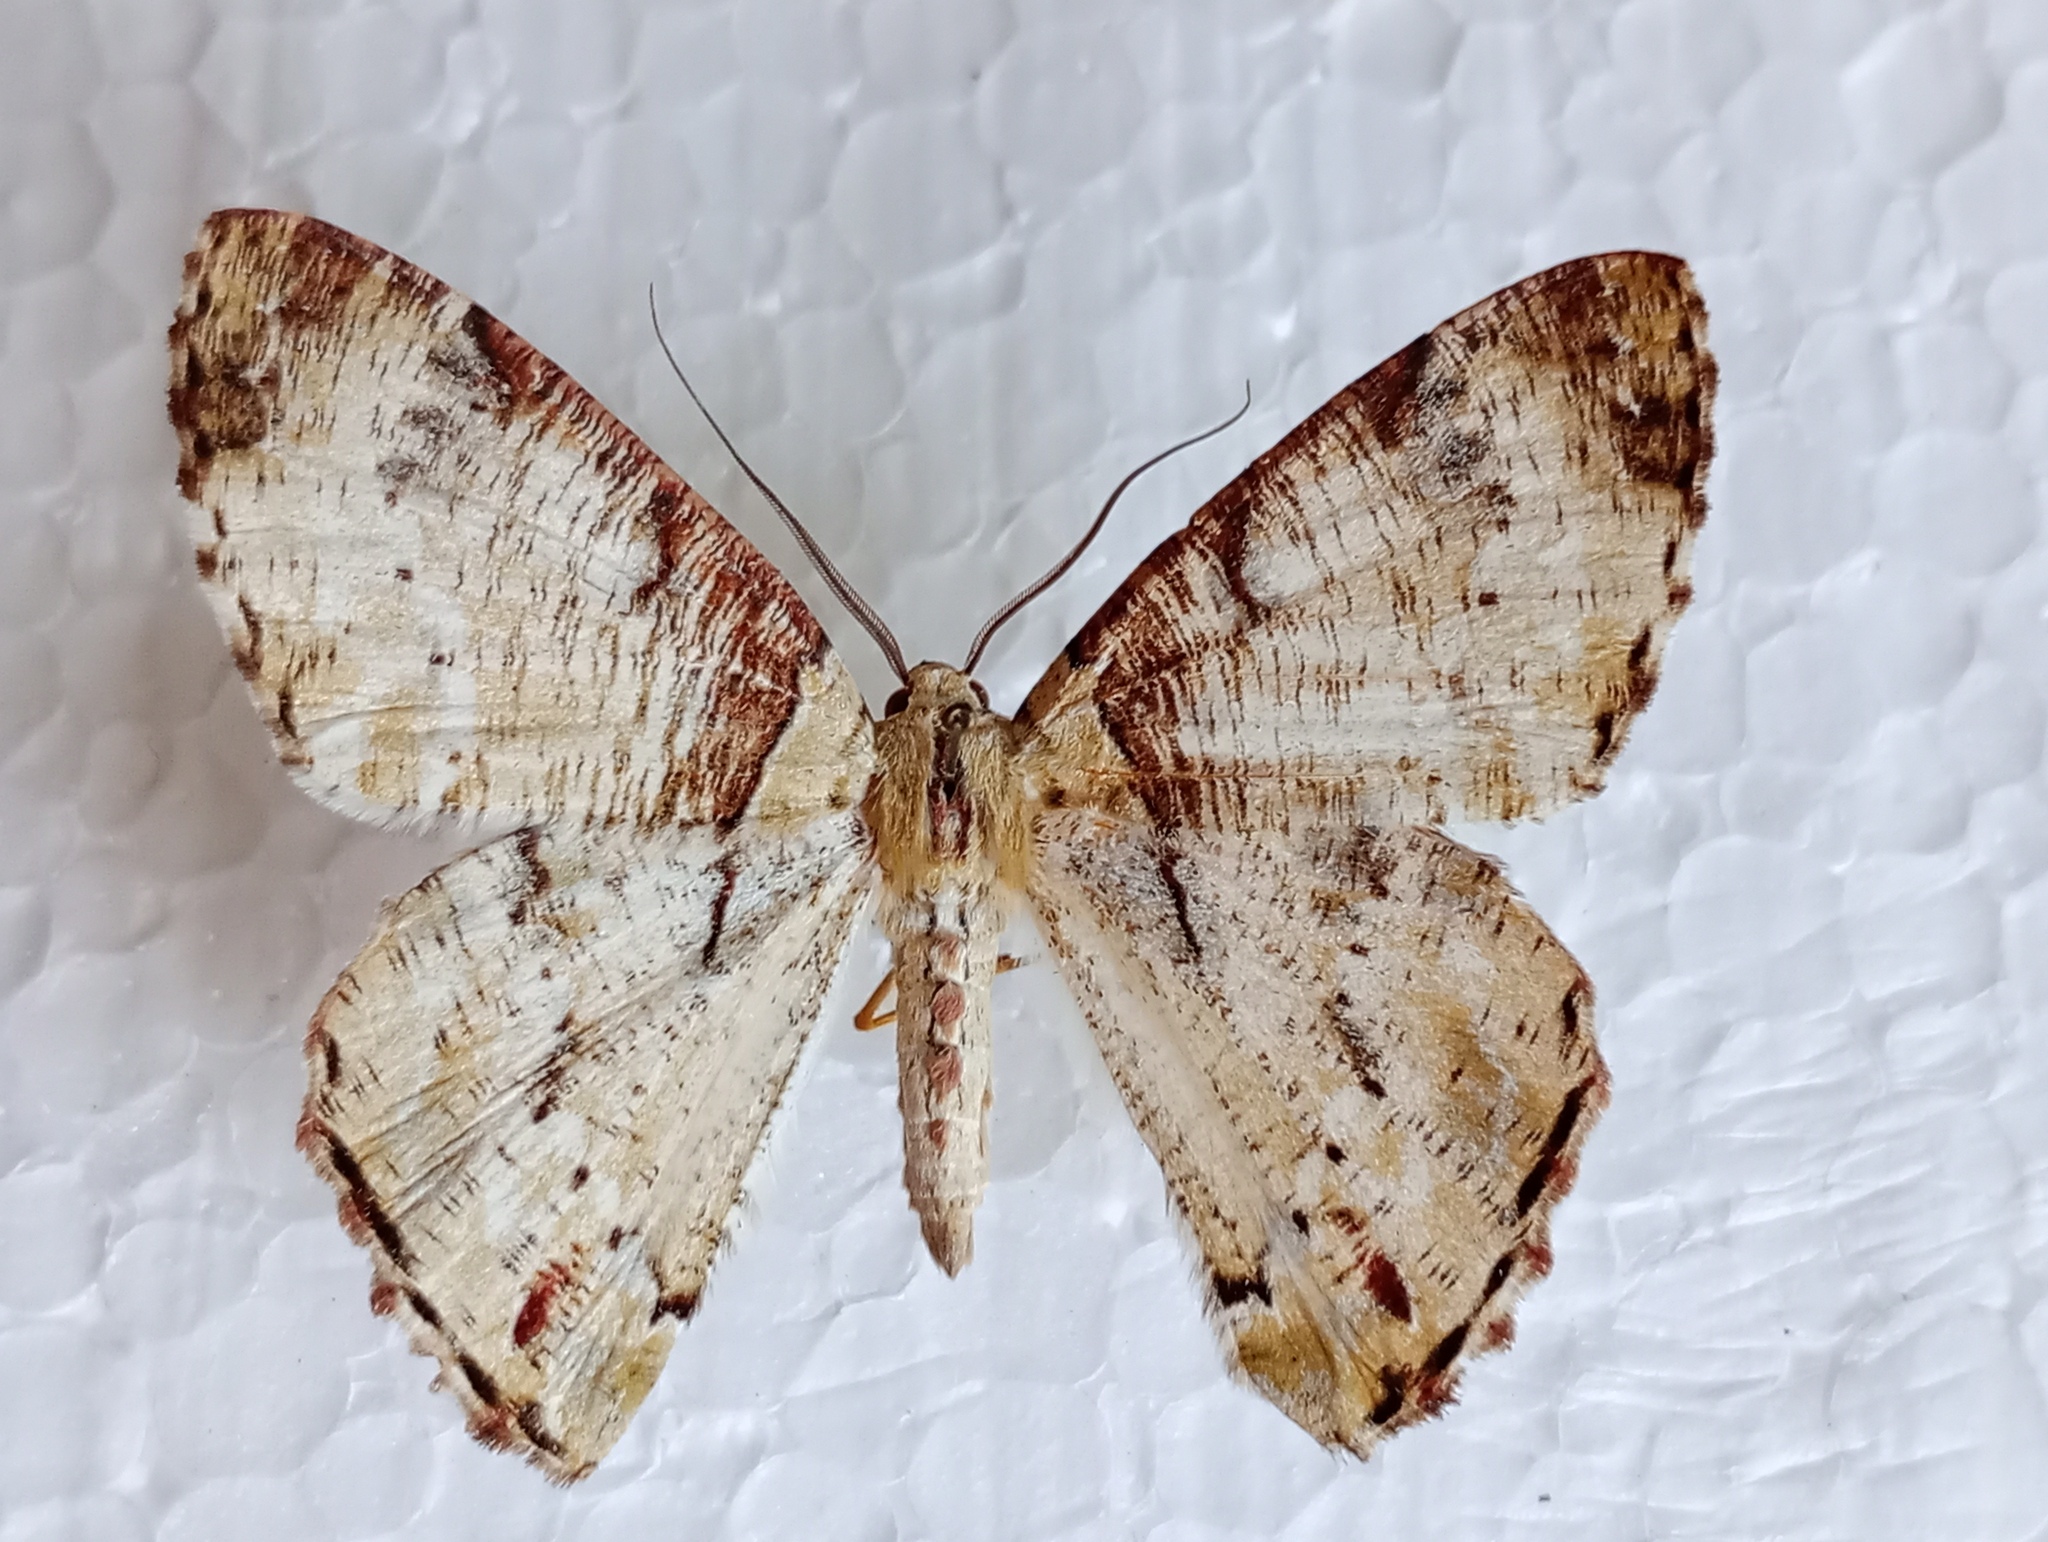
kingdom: Animalia
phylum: Arthropoda
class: Insecta
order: Lepidoptera
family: Geometridae
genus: Pachyodes
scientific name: Pachyodes haemataria
